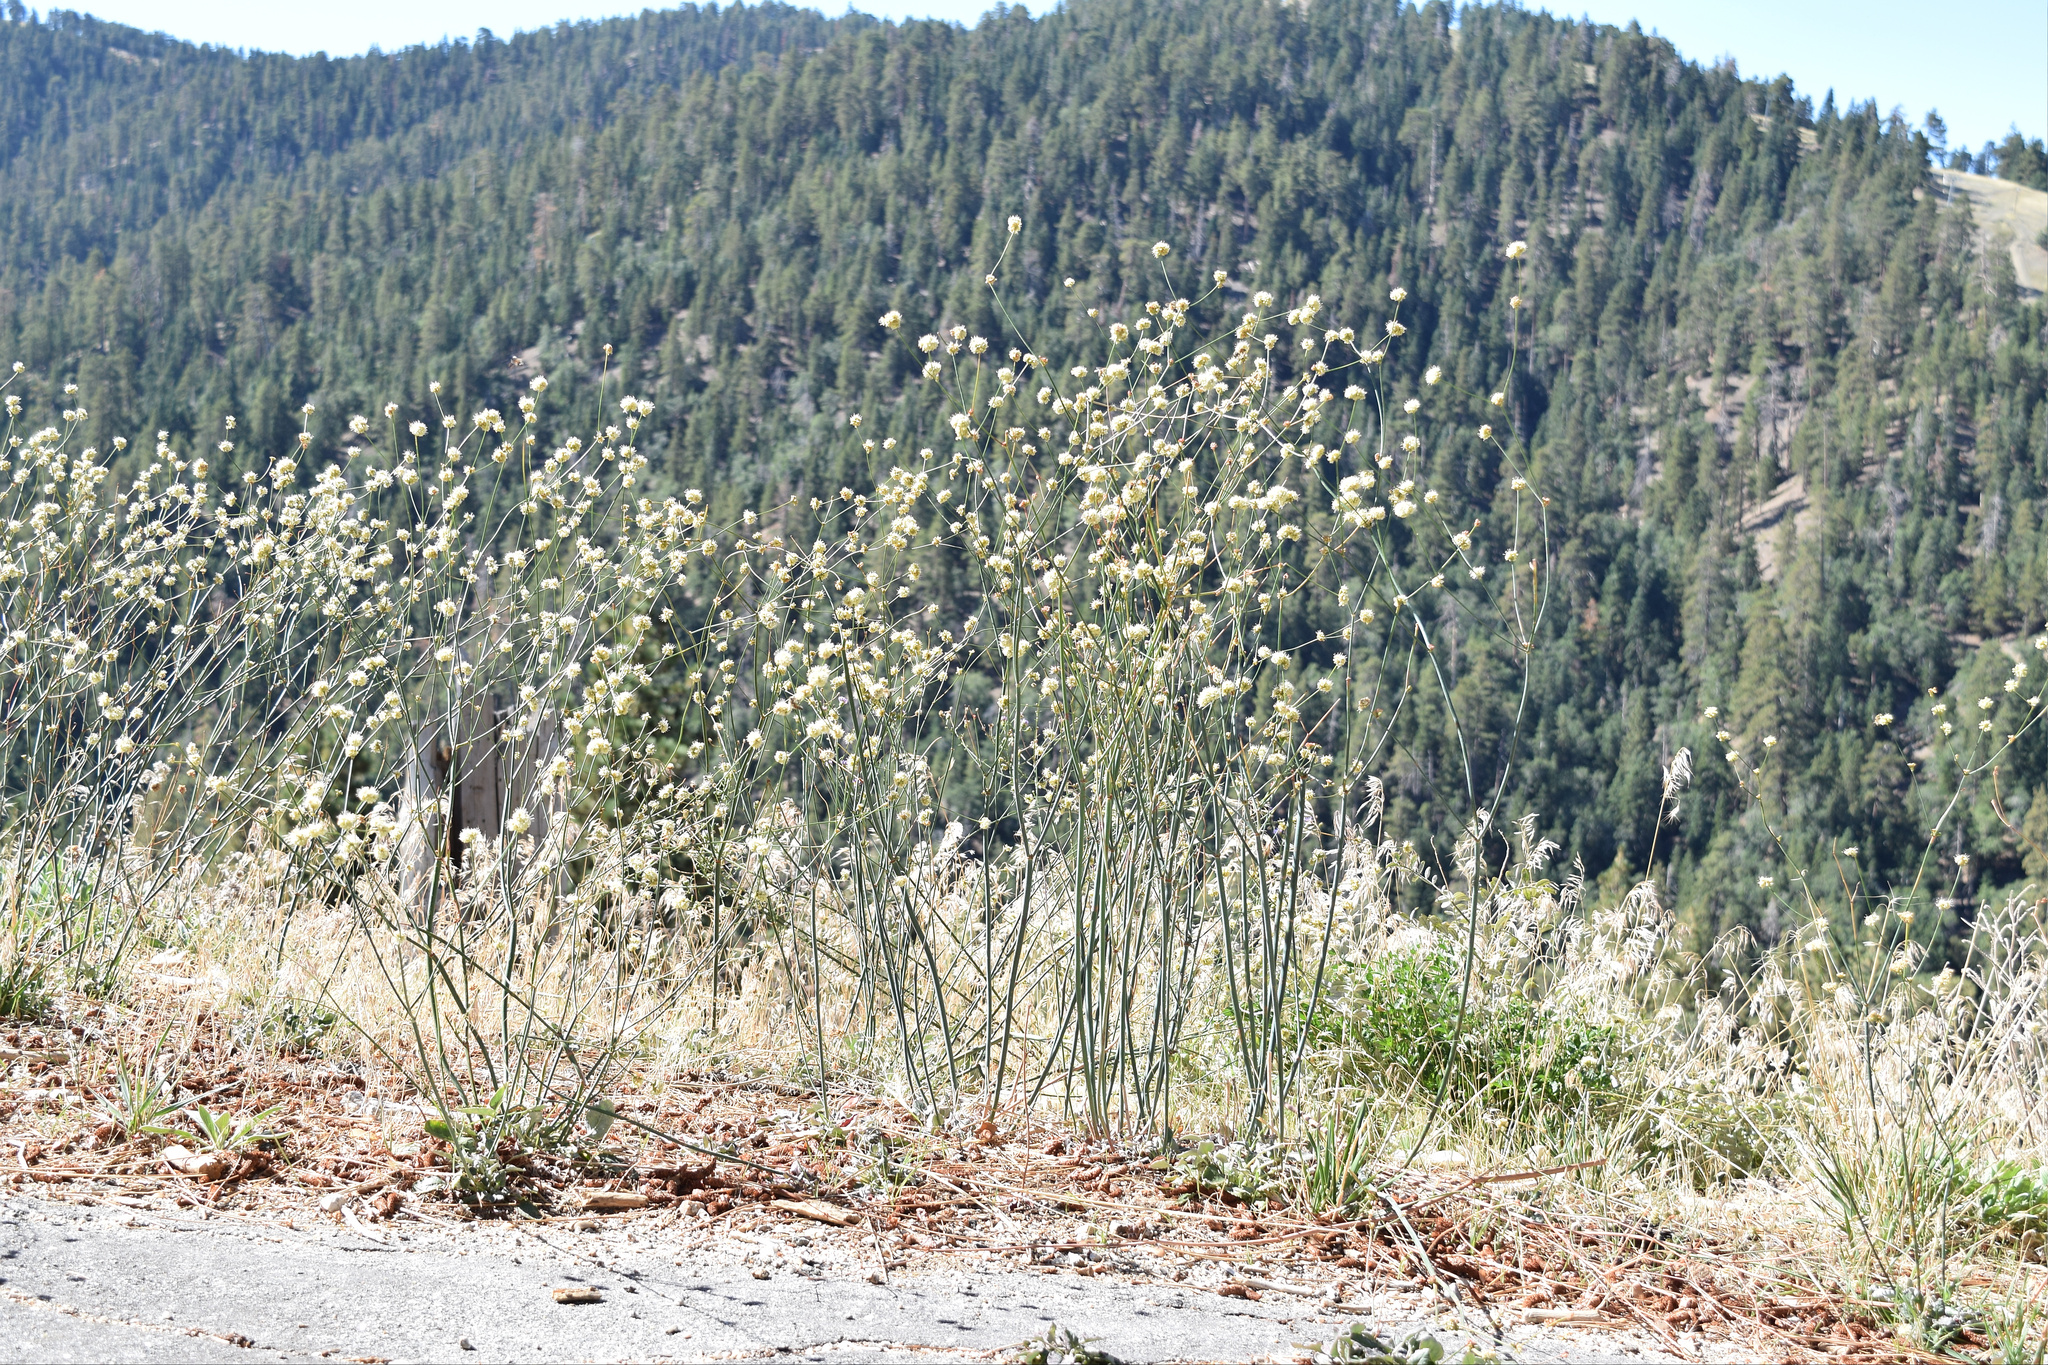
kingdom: Plantae
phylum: Tracheophyta
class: Magnoliopsida
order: Caryophyllales
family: Polygonaceae
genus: Eriogonum
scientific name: Eriogonum nudum
